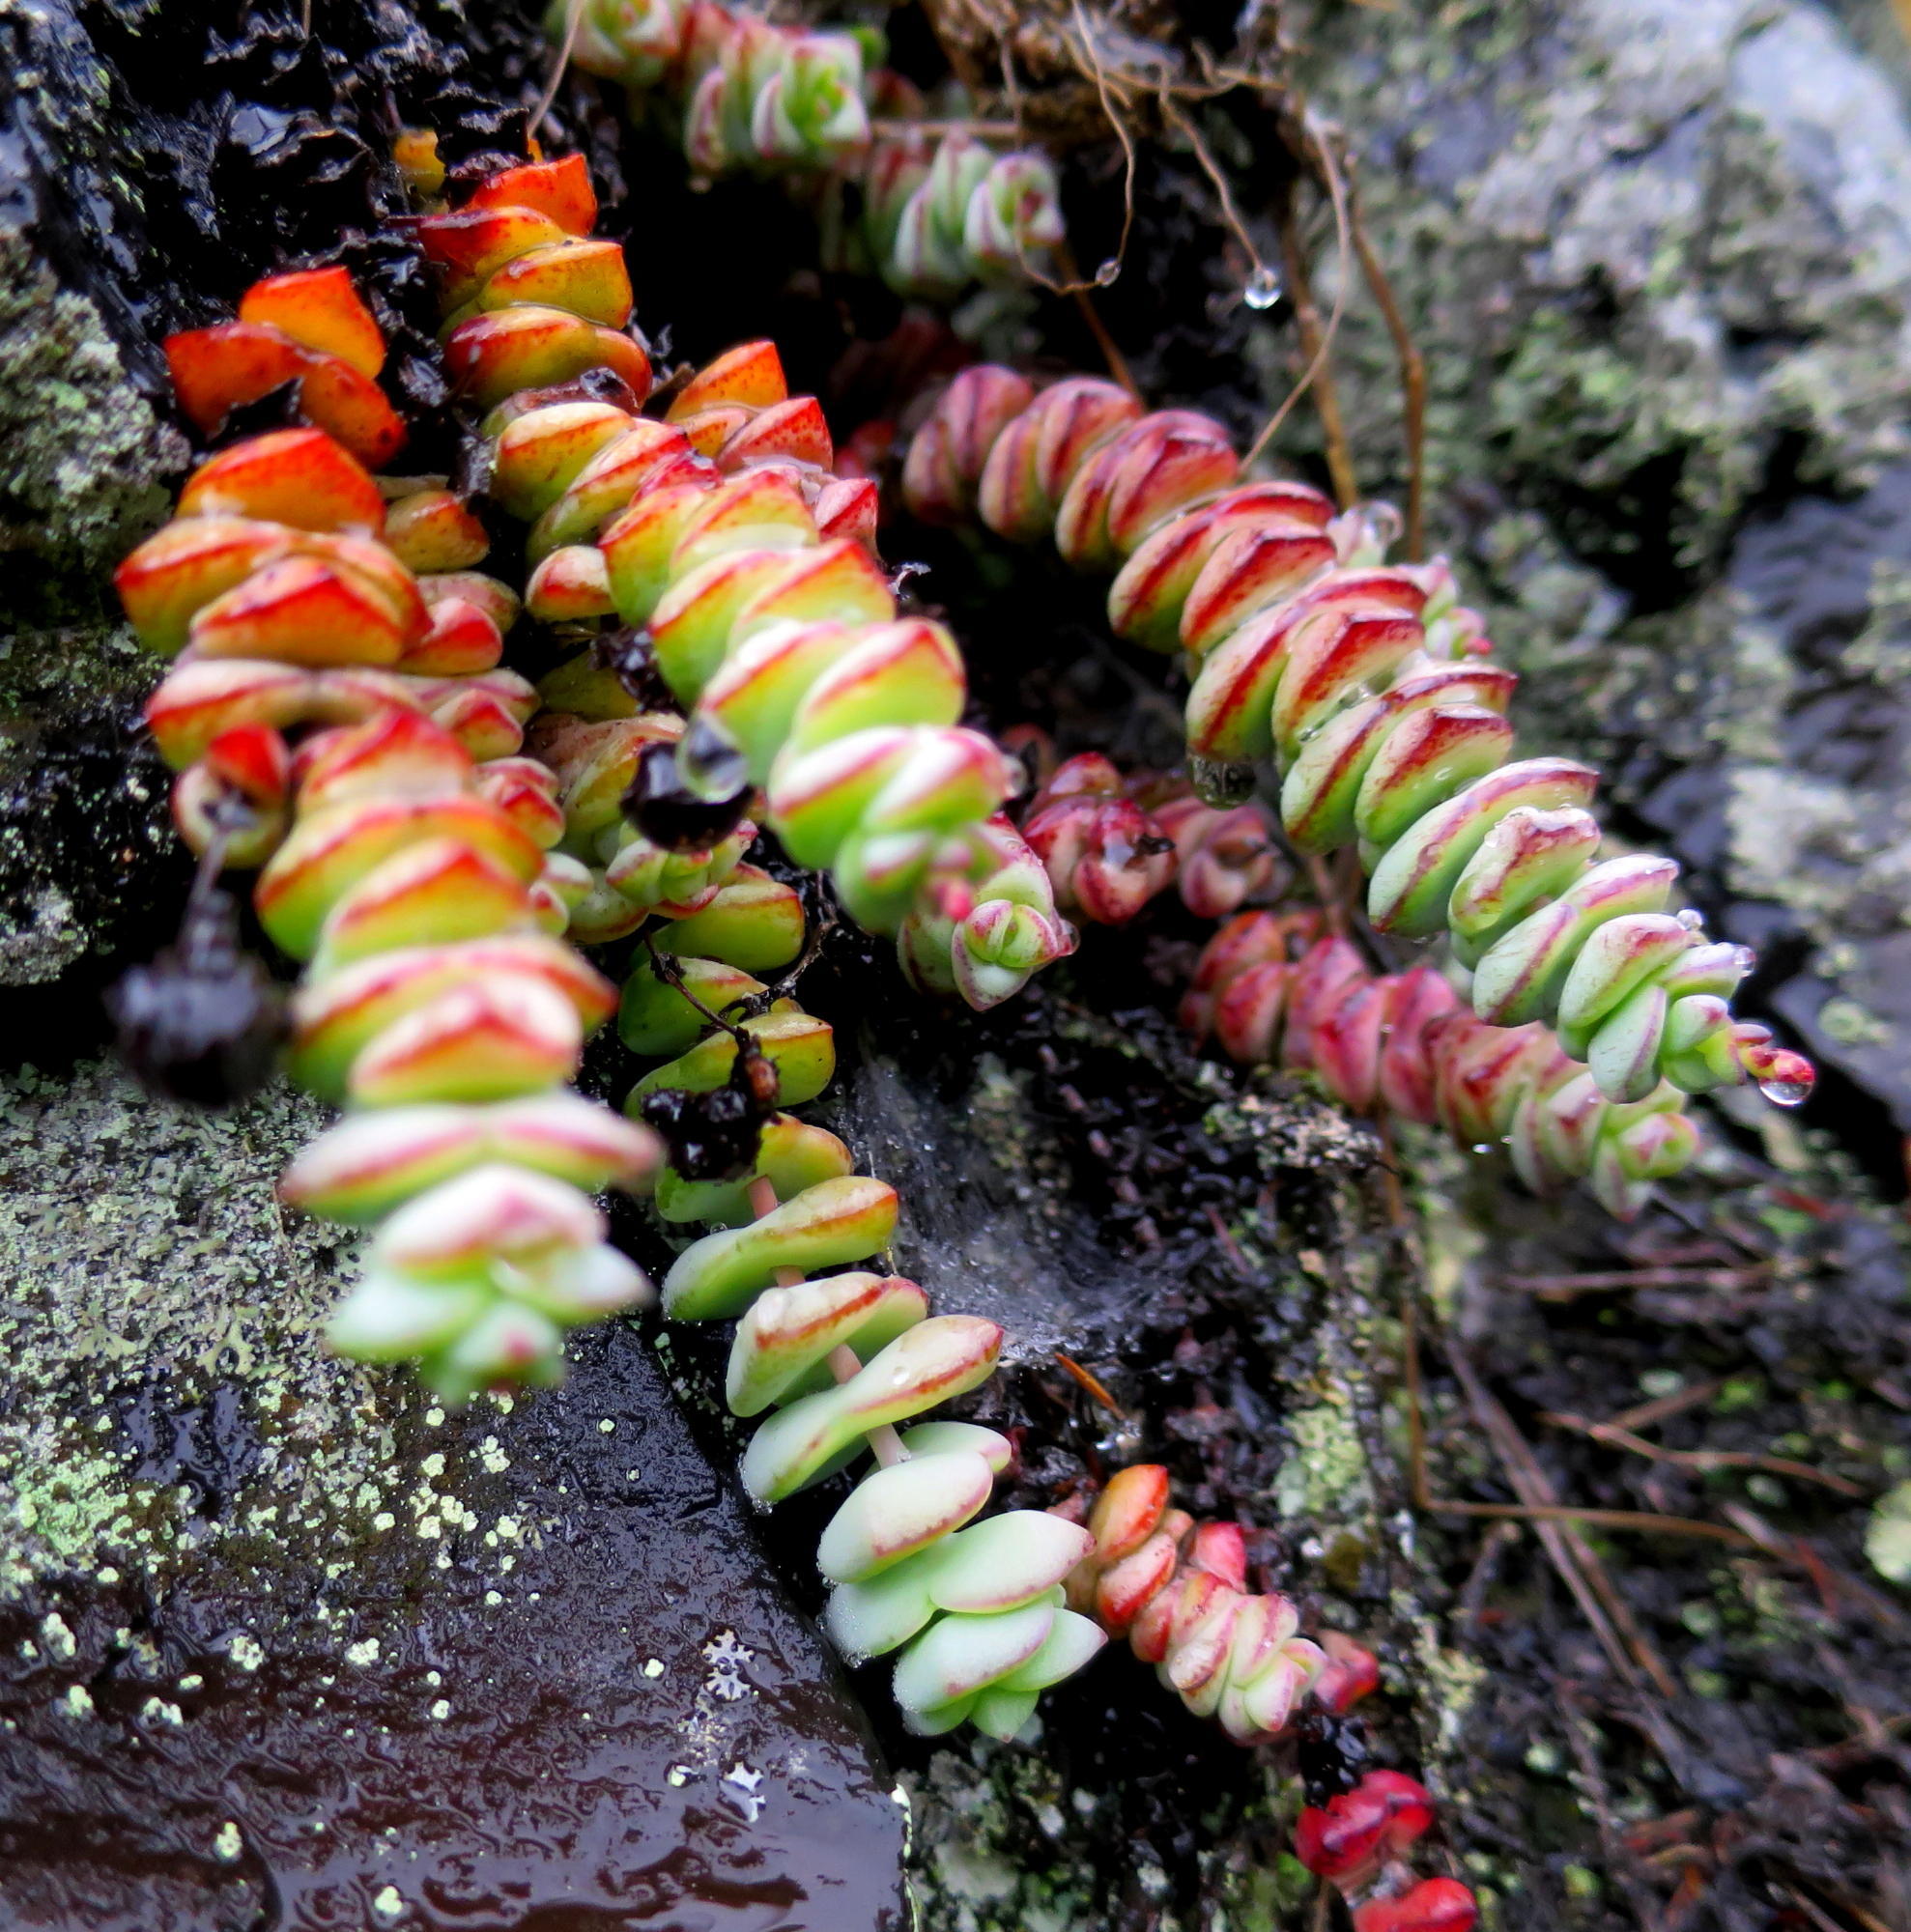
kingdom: Plantae
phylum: Tracheophyta
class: Magnoliopsida
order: Saxifragales
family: Crassulaceae
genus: Crassula
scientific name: Crassula perforata
